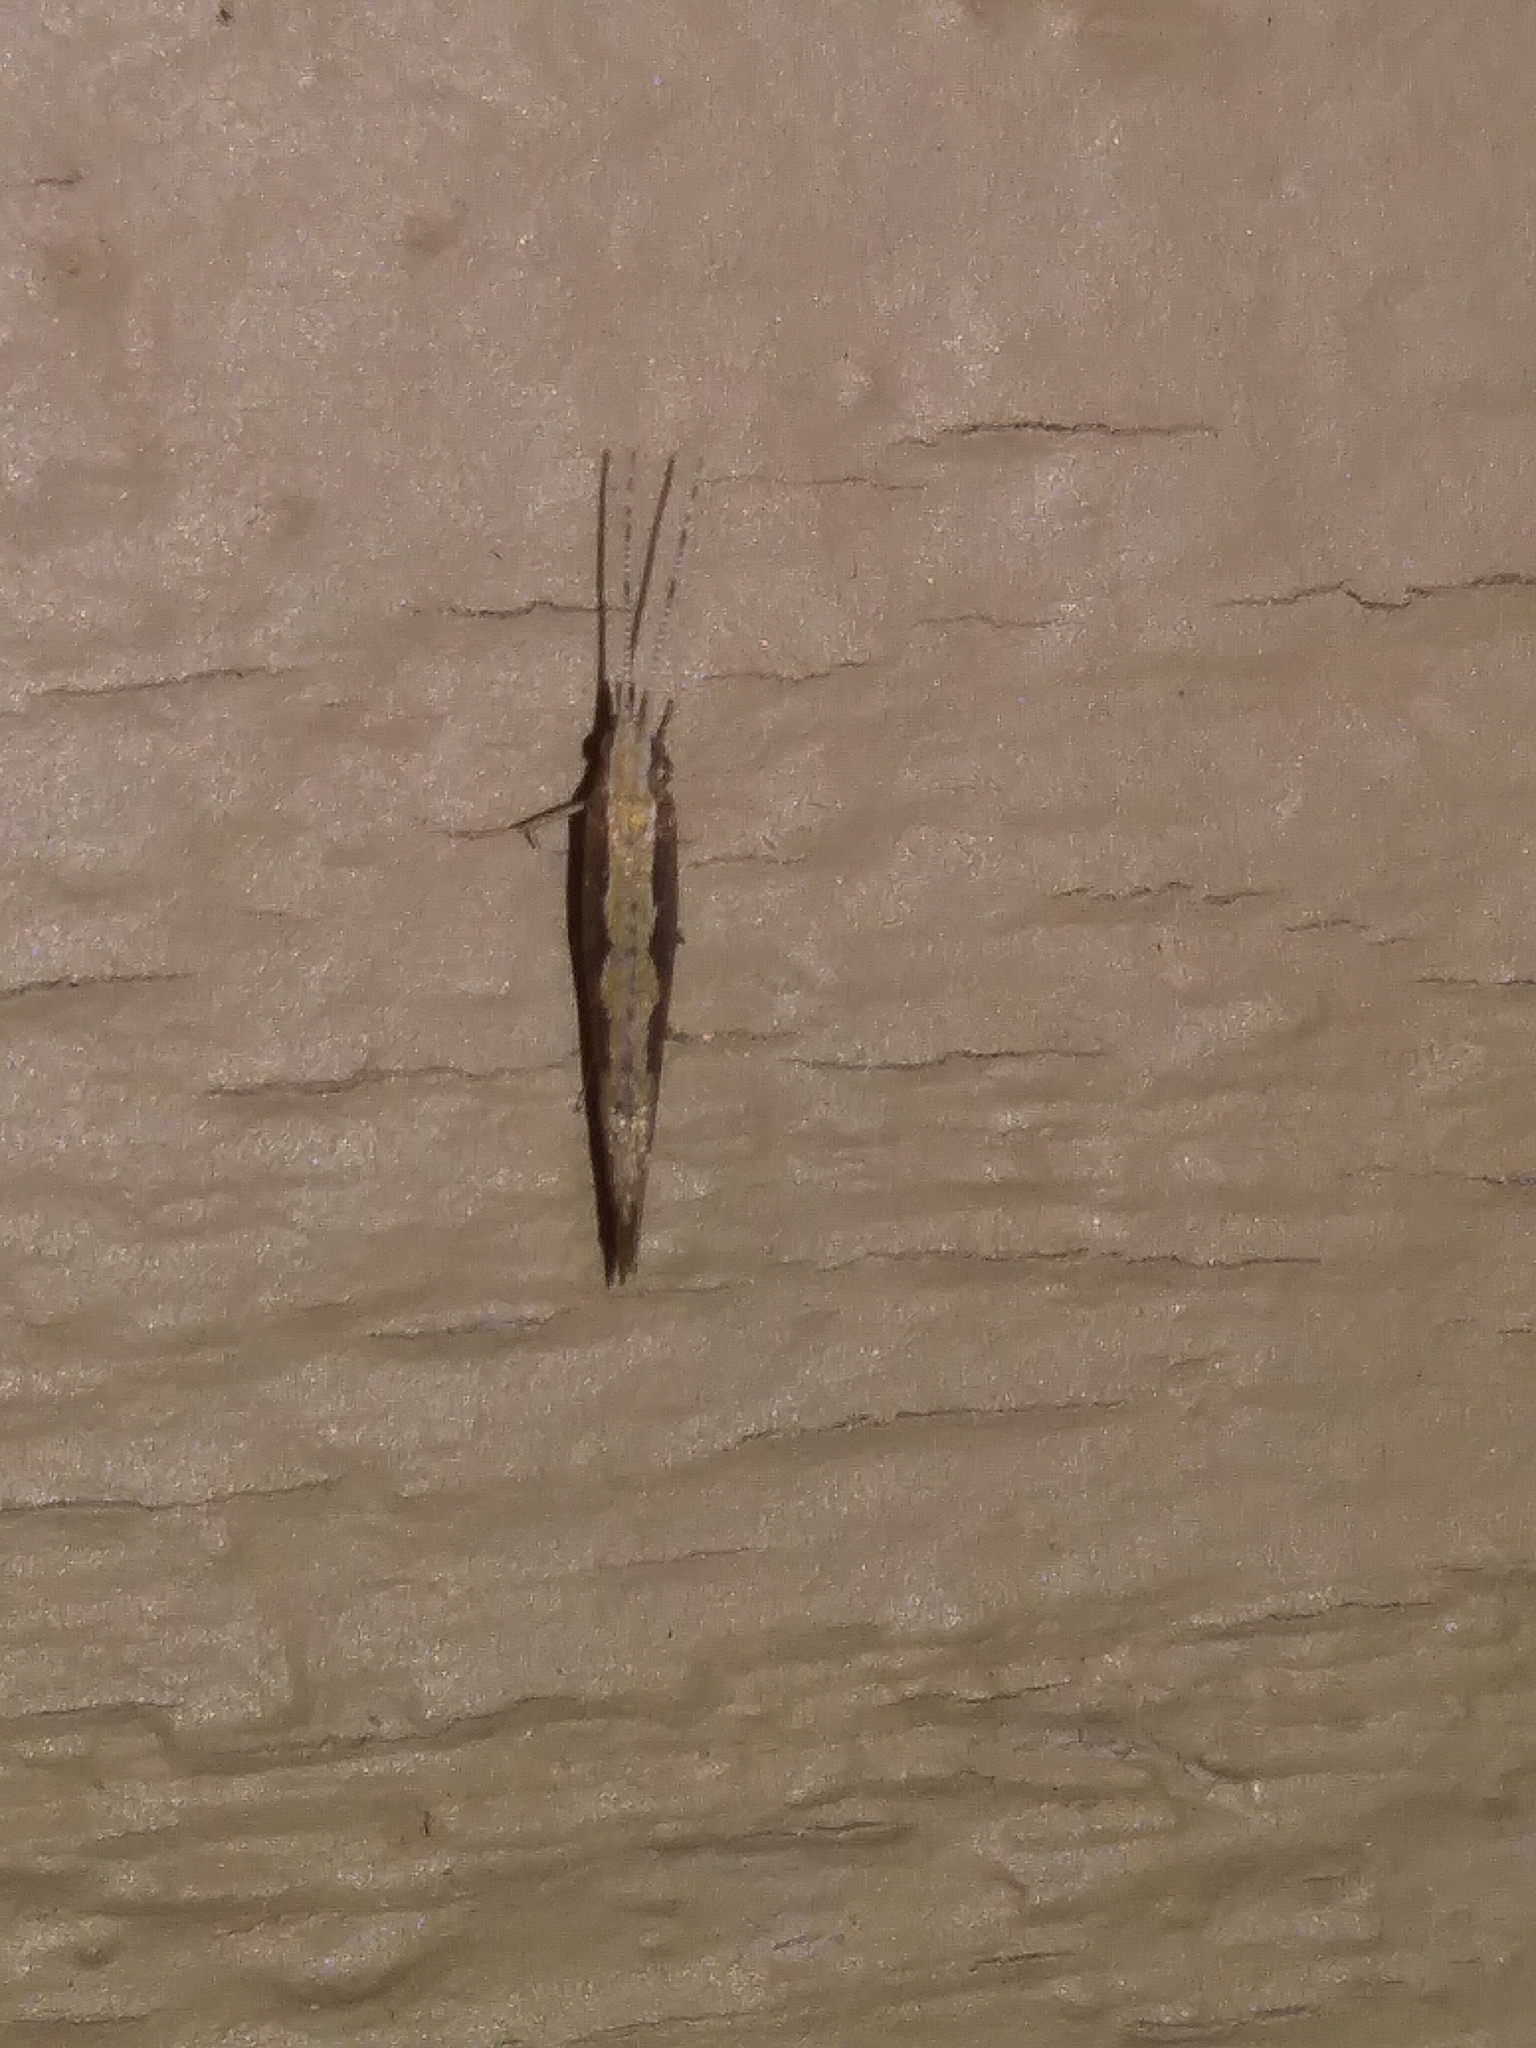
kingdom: Animalia
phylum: Arthropoda
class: Insecta
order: Lepidoptera
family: Plutellidae
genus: Plutella
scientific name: Plutella xylostella
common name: Diamond-back moth
